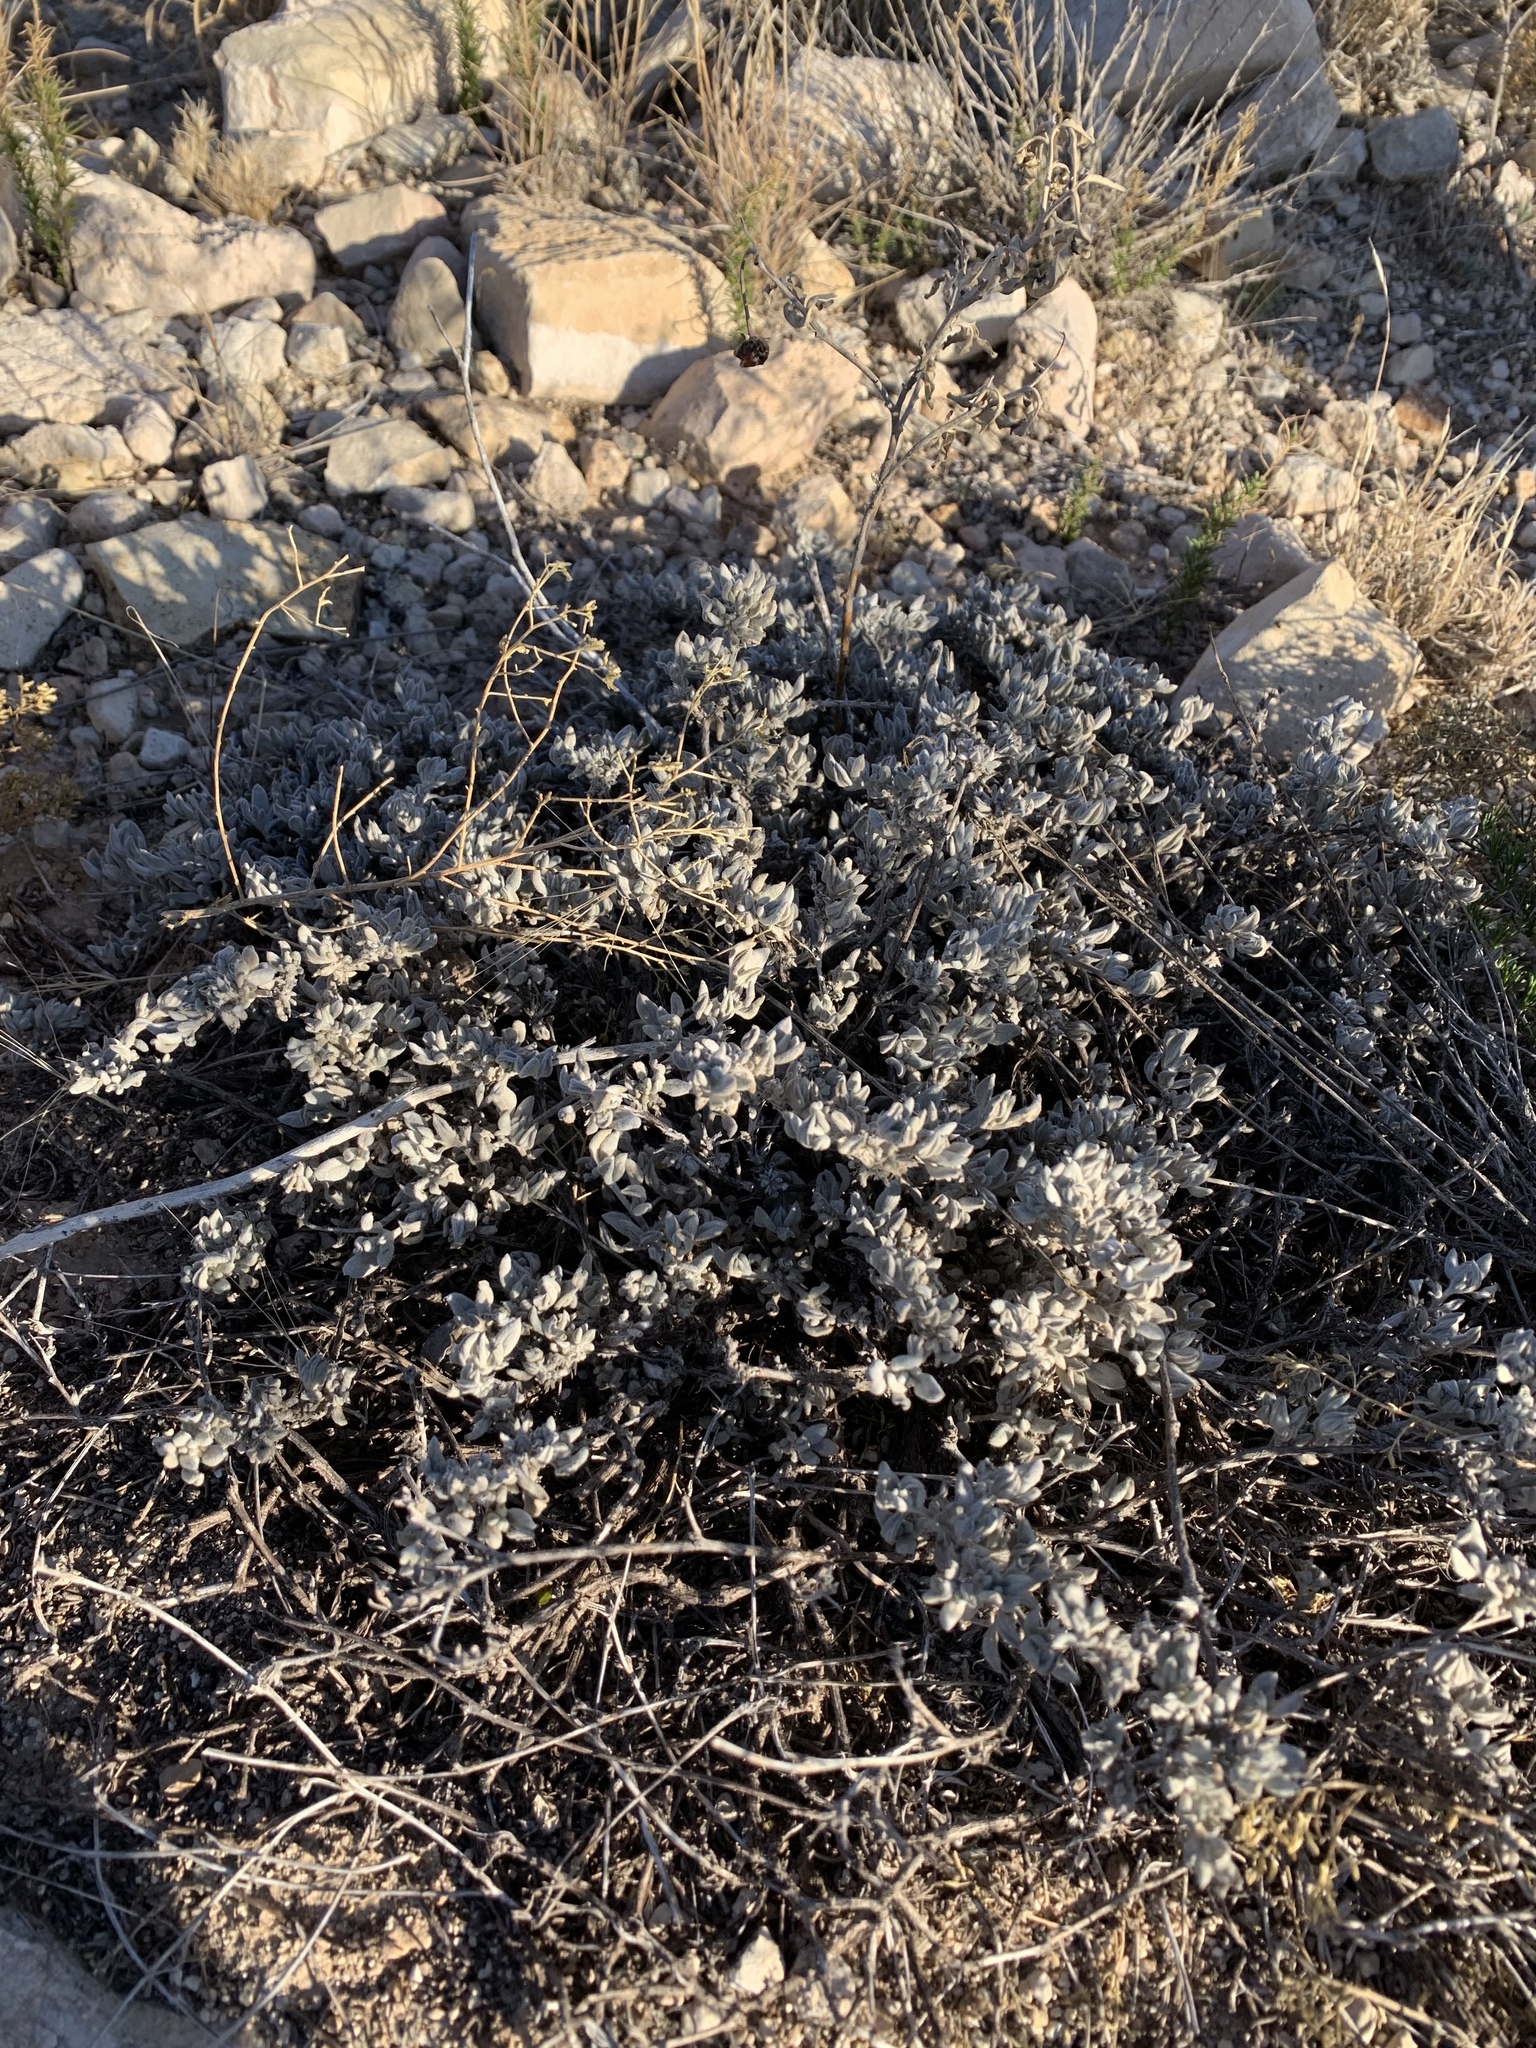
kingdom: Plantae
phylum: Tracheophyta
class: Magnoliopsida
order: Boraginales
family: Ehretiaceae
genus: Tiquilia
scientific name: Tiquilia canescens
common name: Hairy tiquilia
